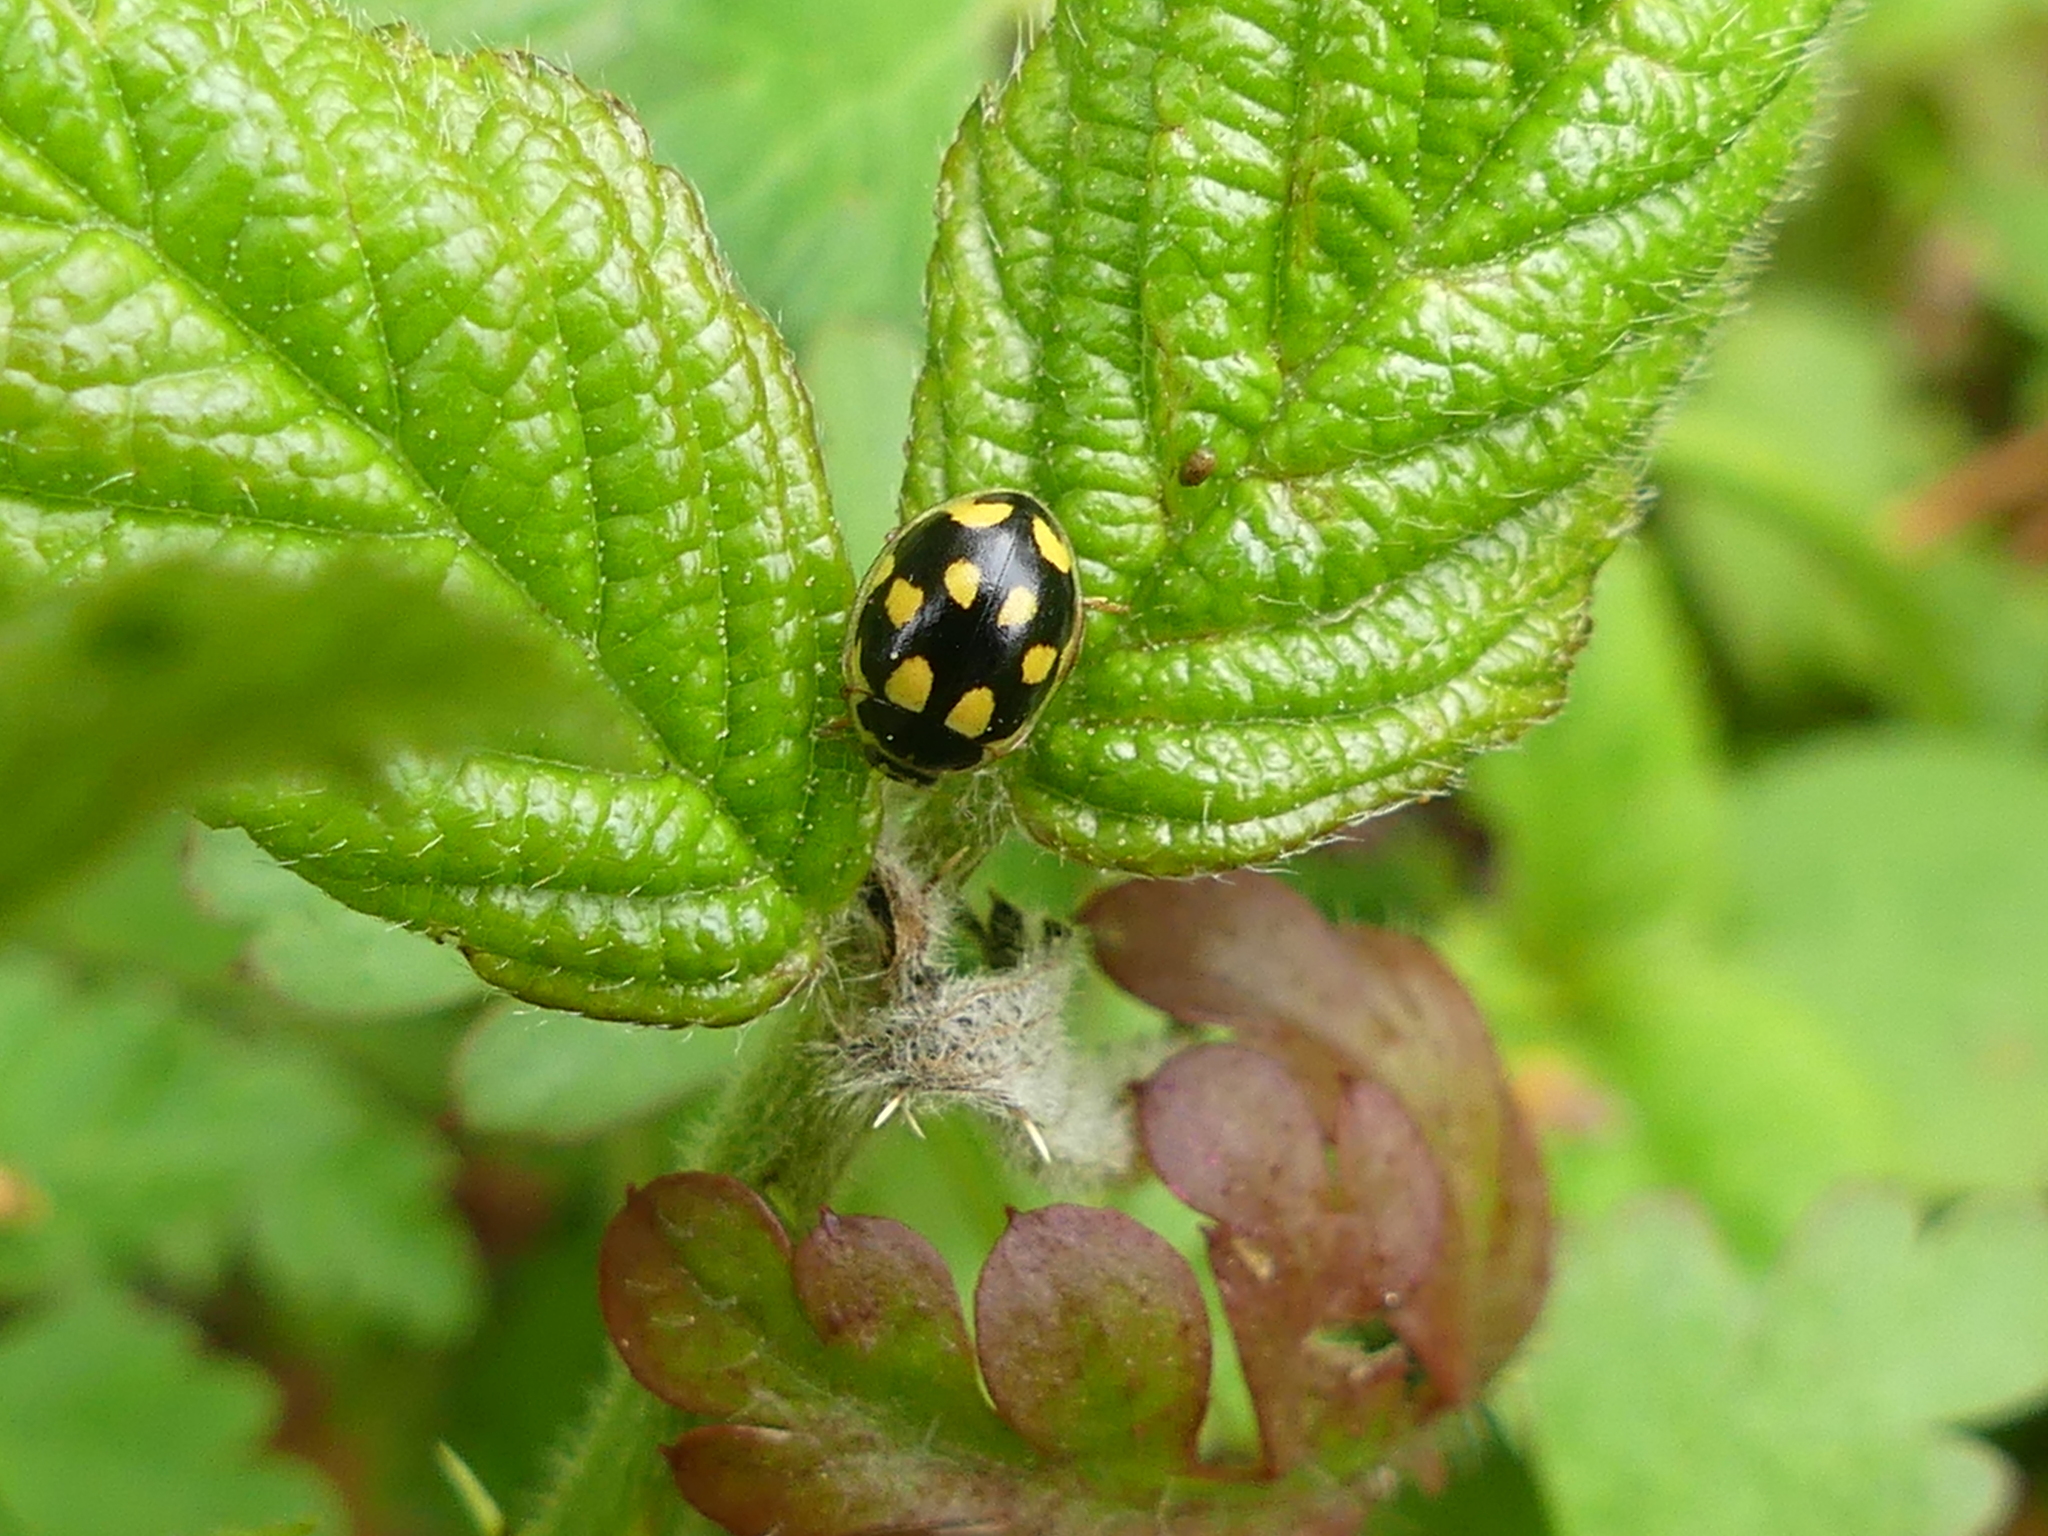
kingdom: Animalia
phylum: Arthropoda
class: Insecta
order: Coleoptera
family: Coccinellidae
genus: Propylaea
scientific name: Propylaea quatuordecimpunctata
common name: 14-spotted ladybird beetle
